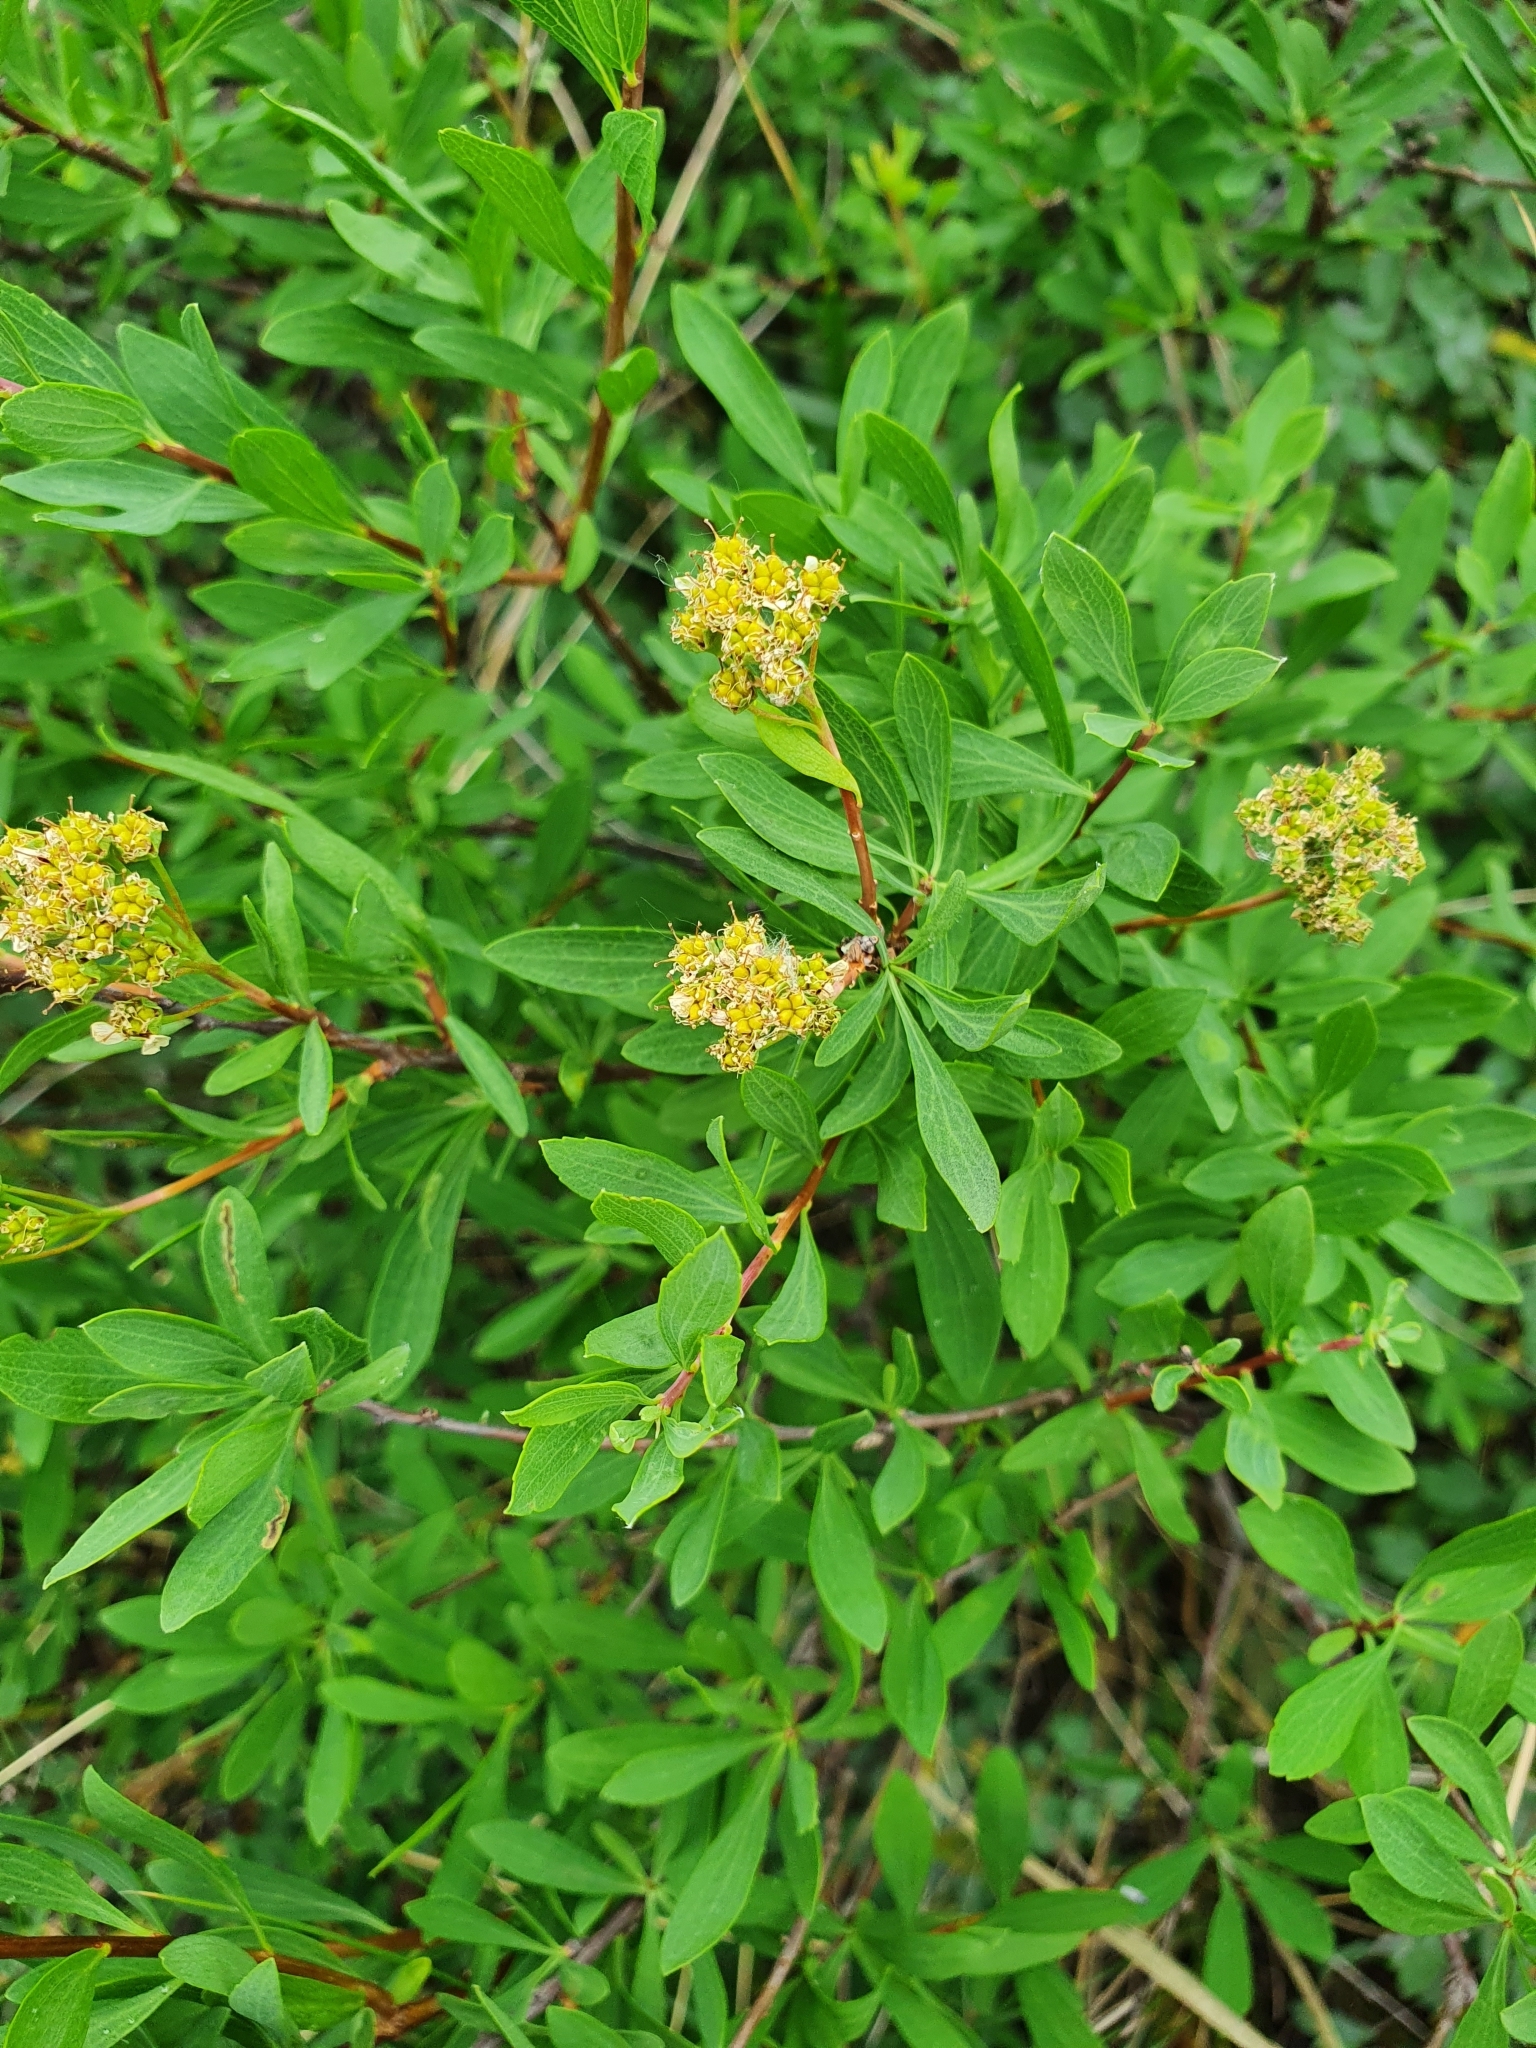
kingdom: Plantae
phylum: Tracheophyta
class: Magnoliopsida
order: Rosales
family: Rosaceae
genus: Spiraea
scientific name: Spiraea crenata
